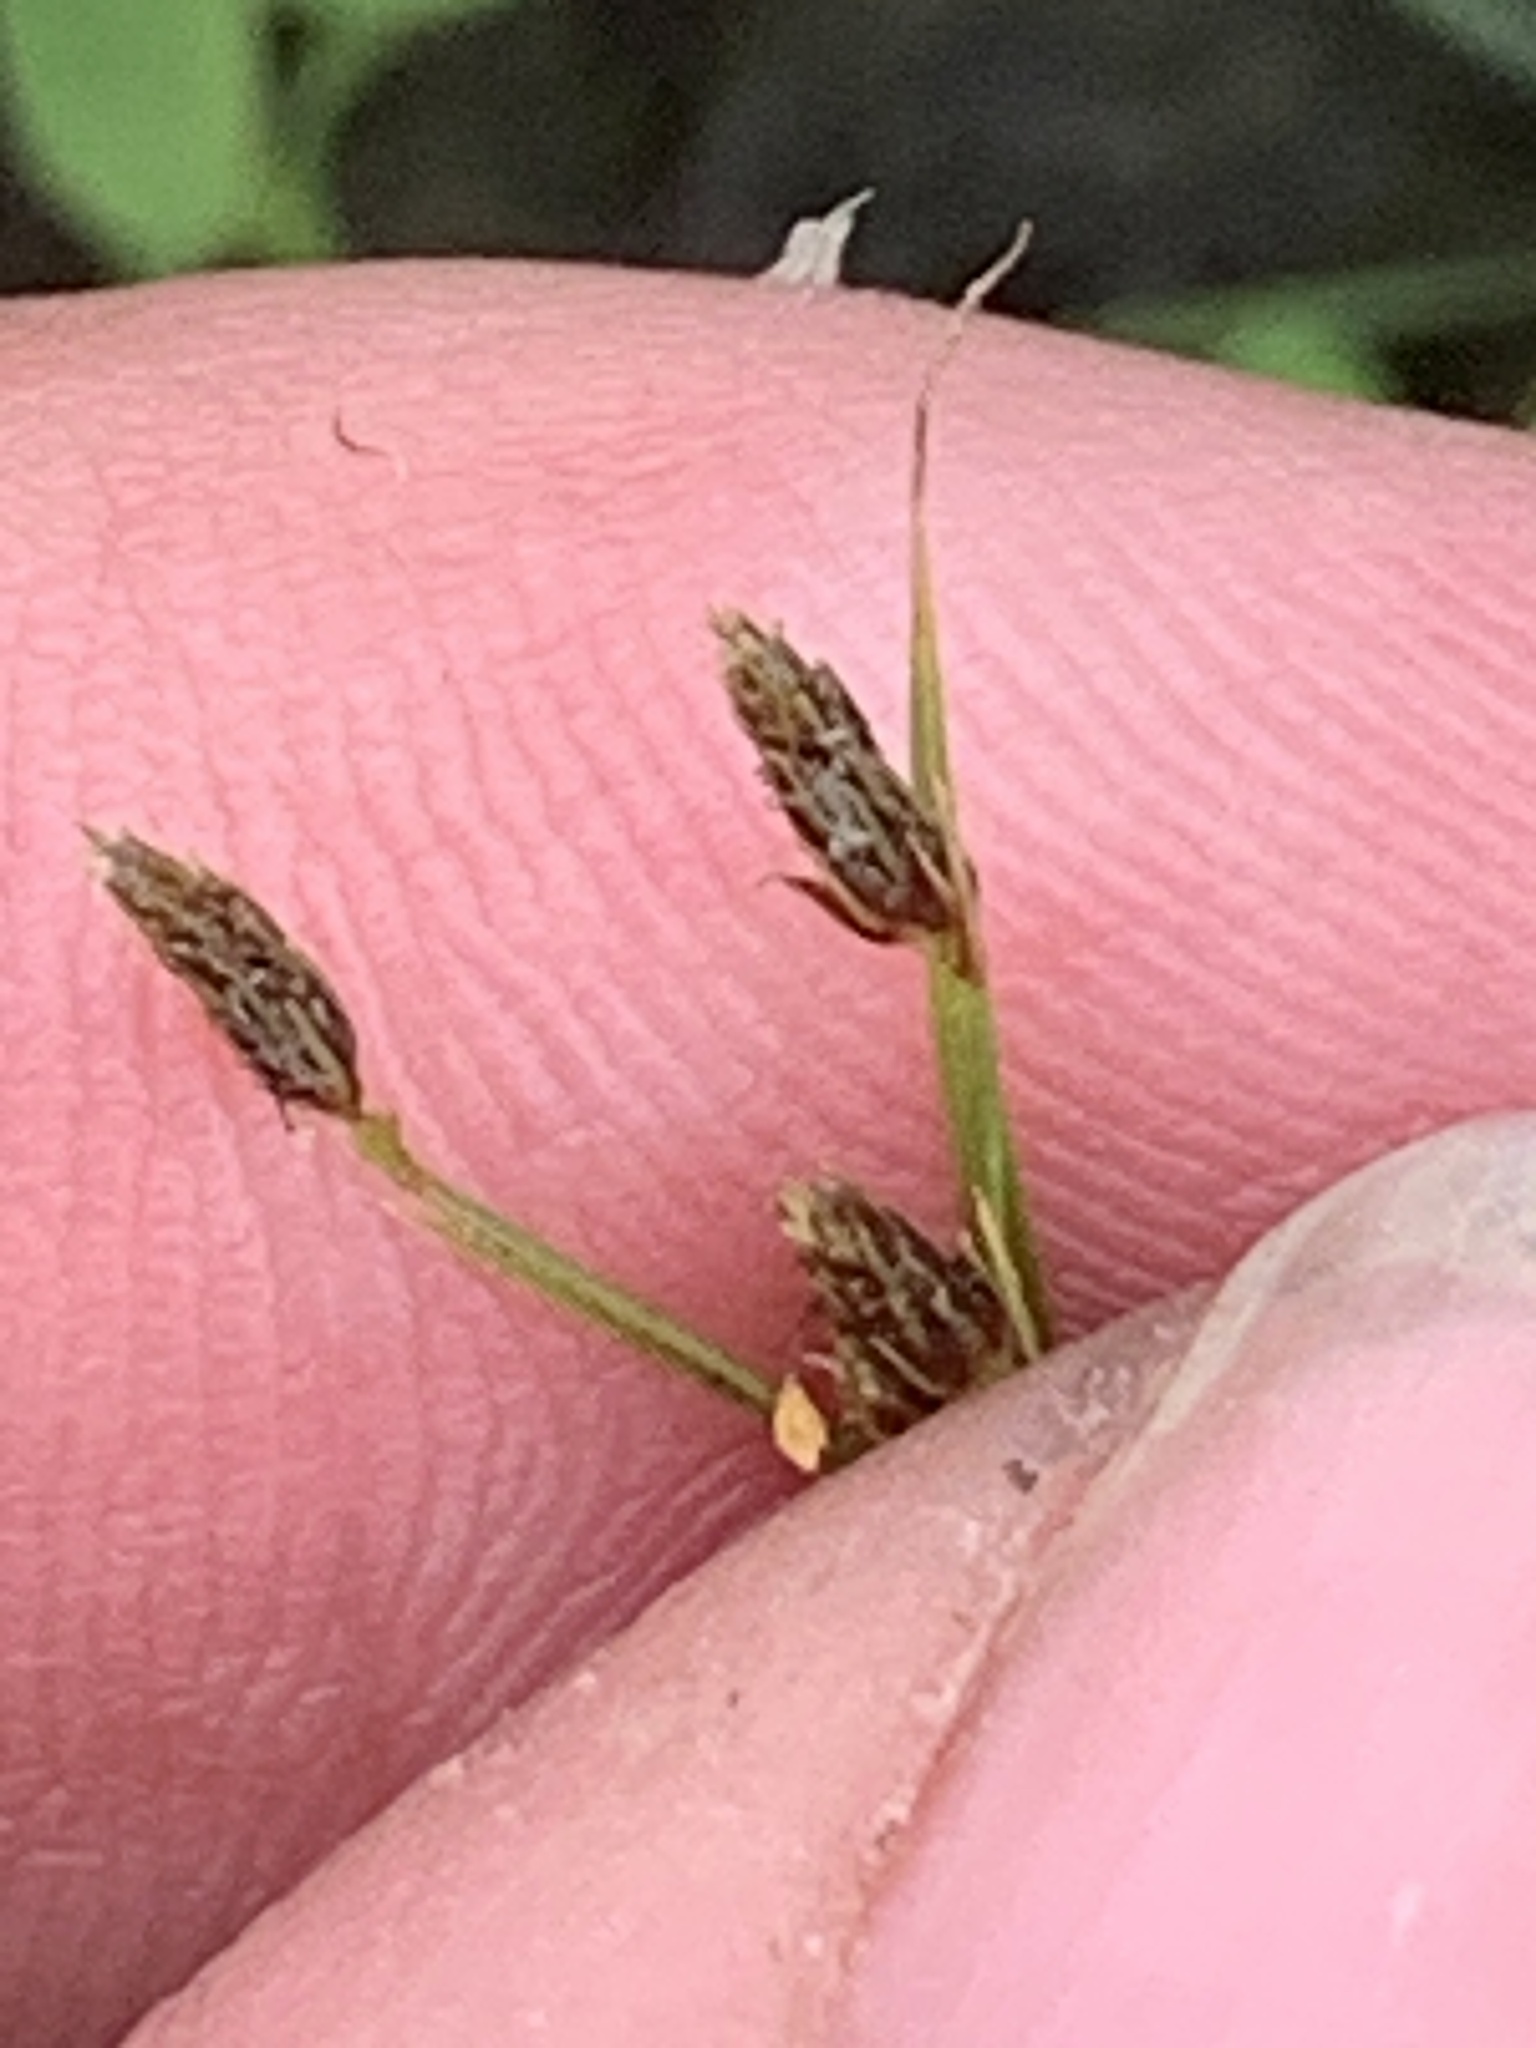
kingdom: Plantae
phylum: Tracheophyta
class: Liliopsida
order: Poales
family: Cyperaceae
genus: Fimbristylis
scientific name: Fimbristylis autumnalis
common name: Slender fimbristylis
